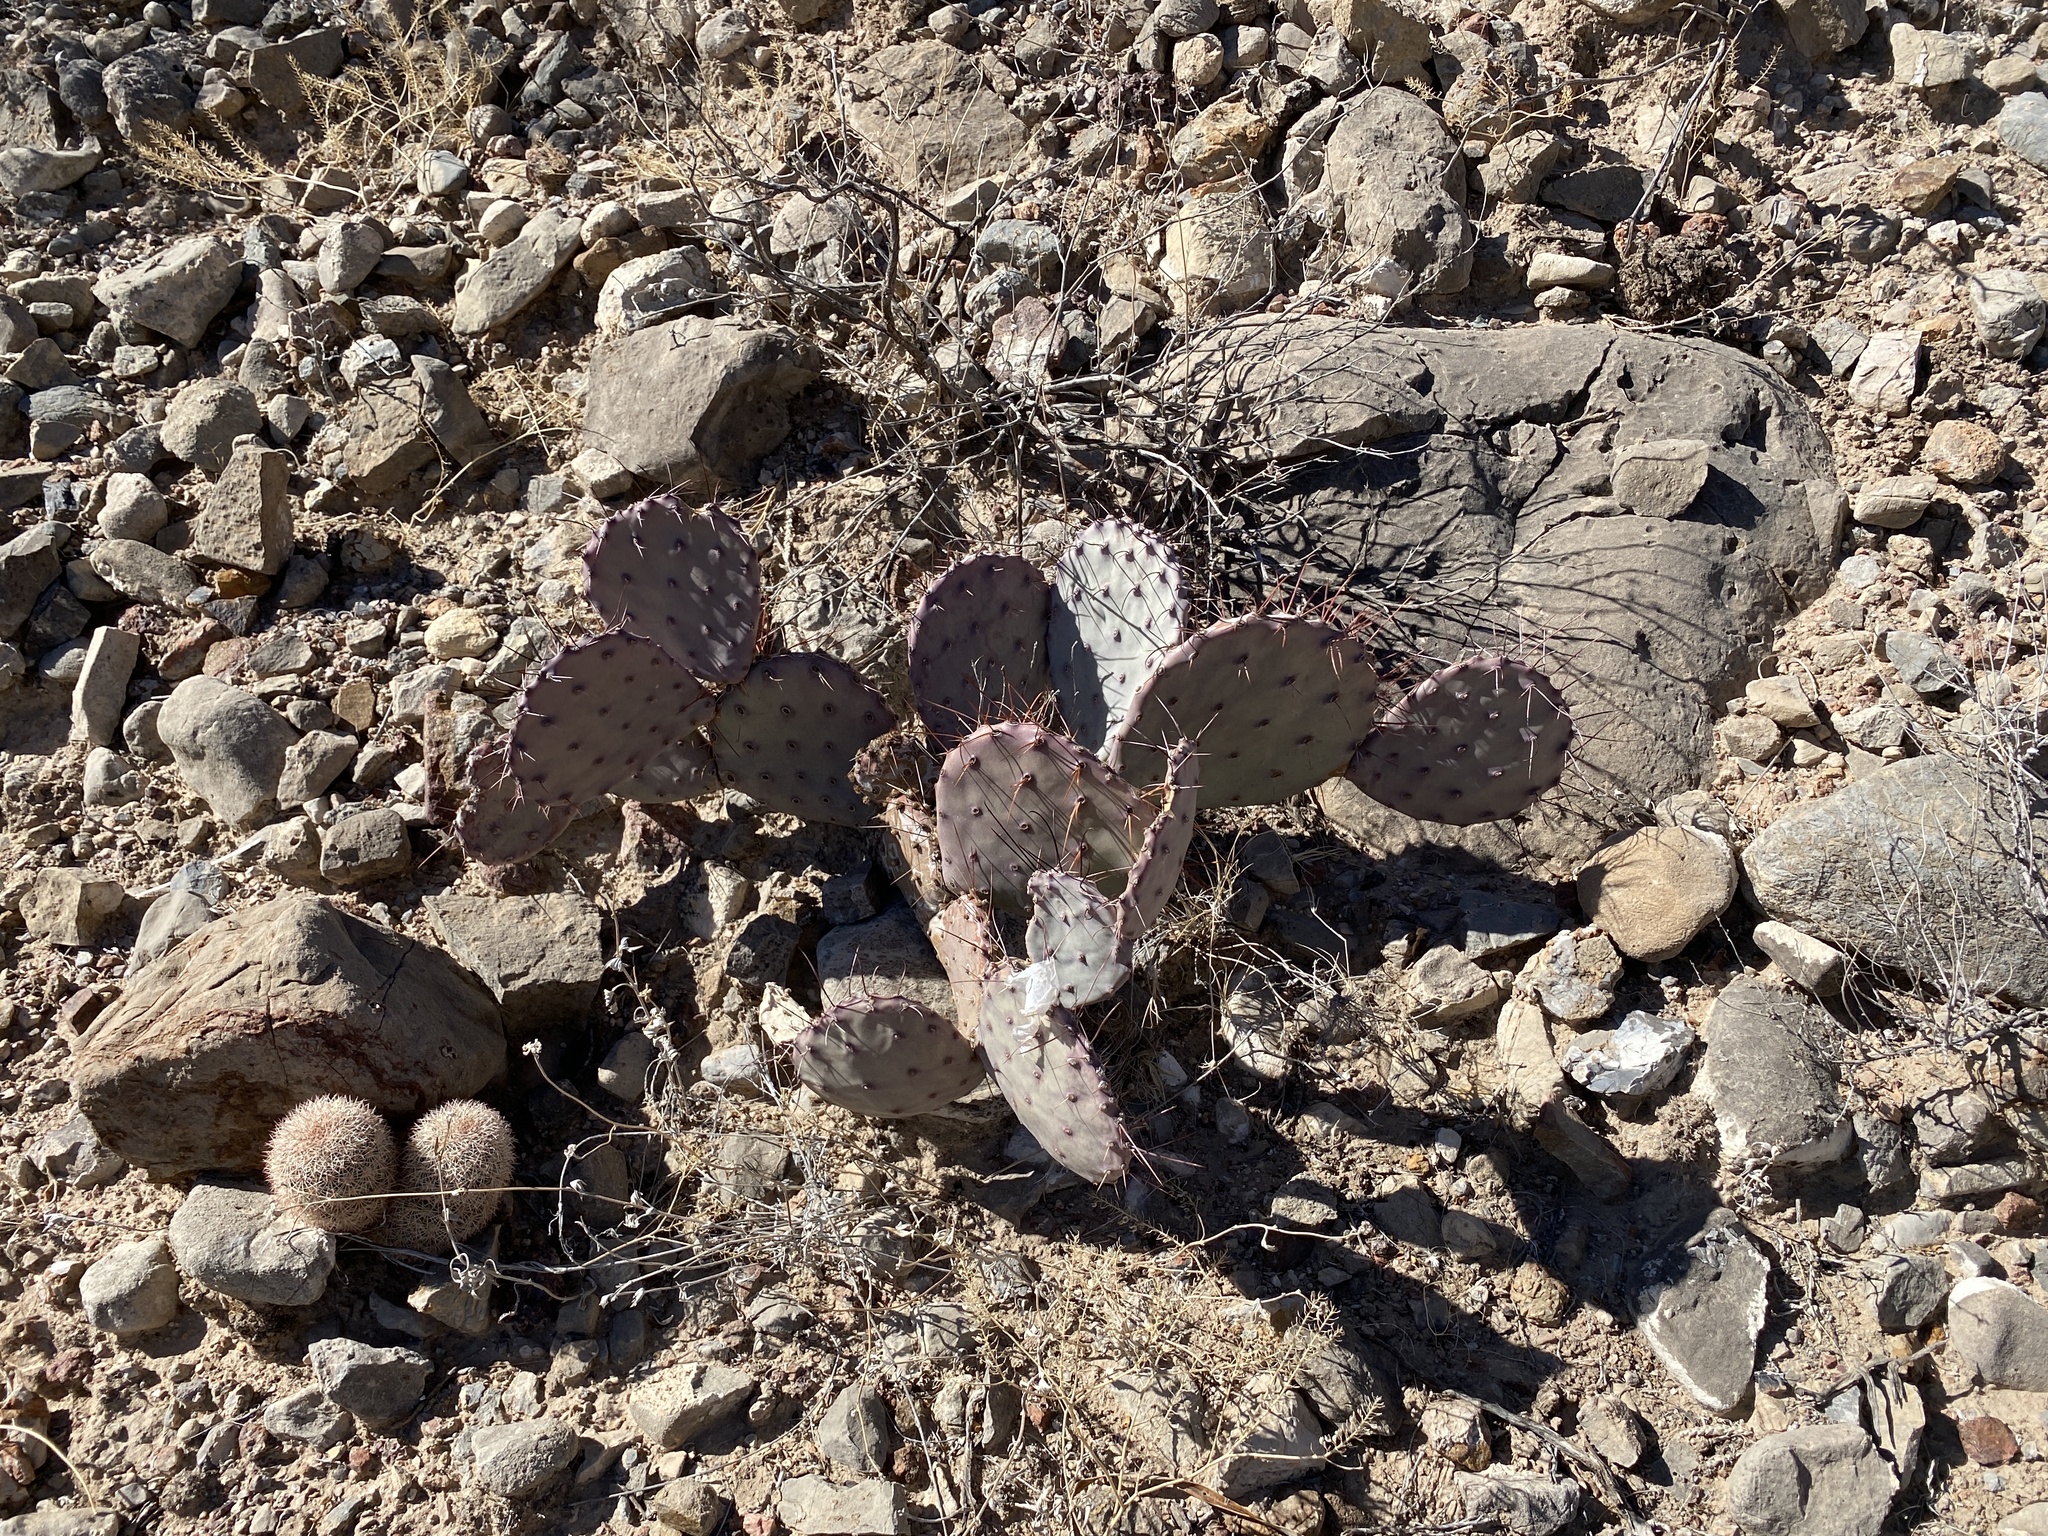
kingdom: Plantae
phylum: Tracheophyta
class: Magnoliopsida
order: Caryophyllales
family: Cactaceae
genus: Opuntia
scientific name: Opuntia macrocentra
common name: Purple prickly-pear
